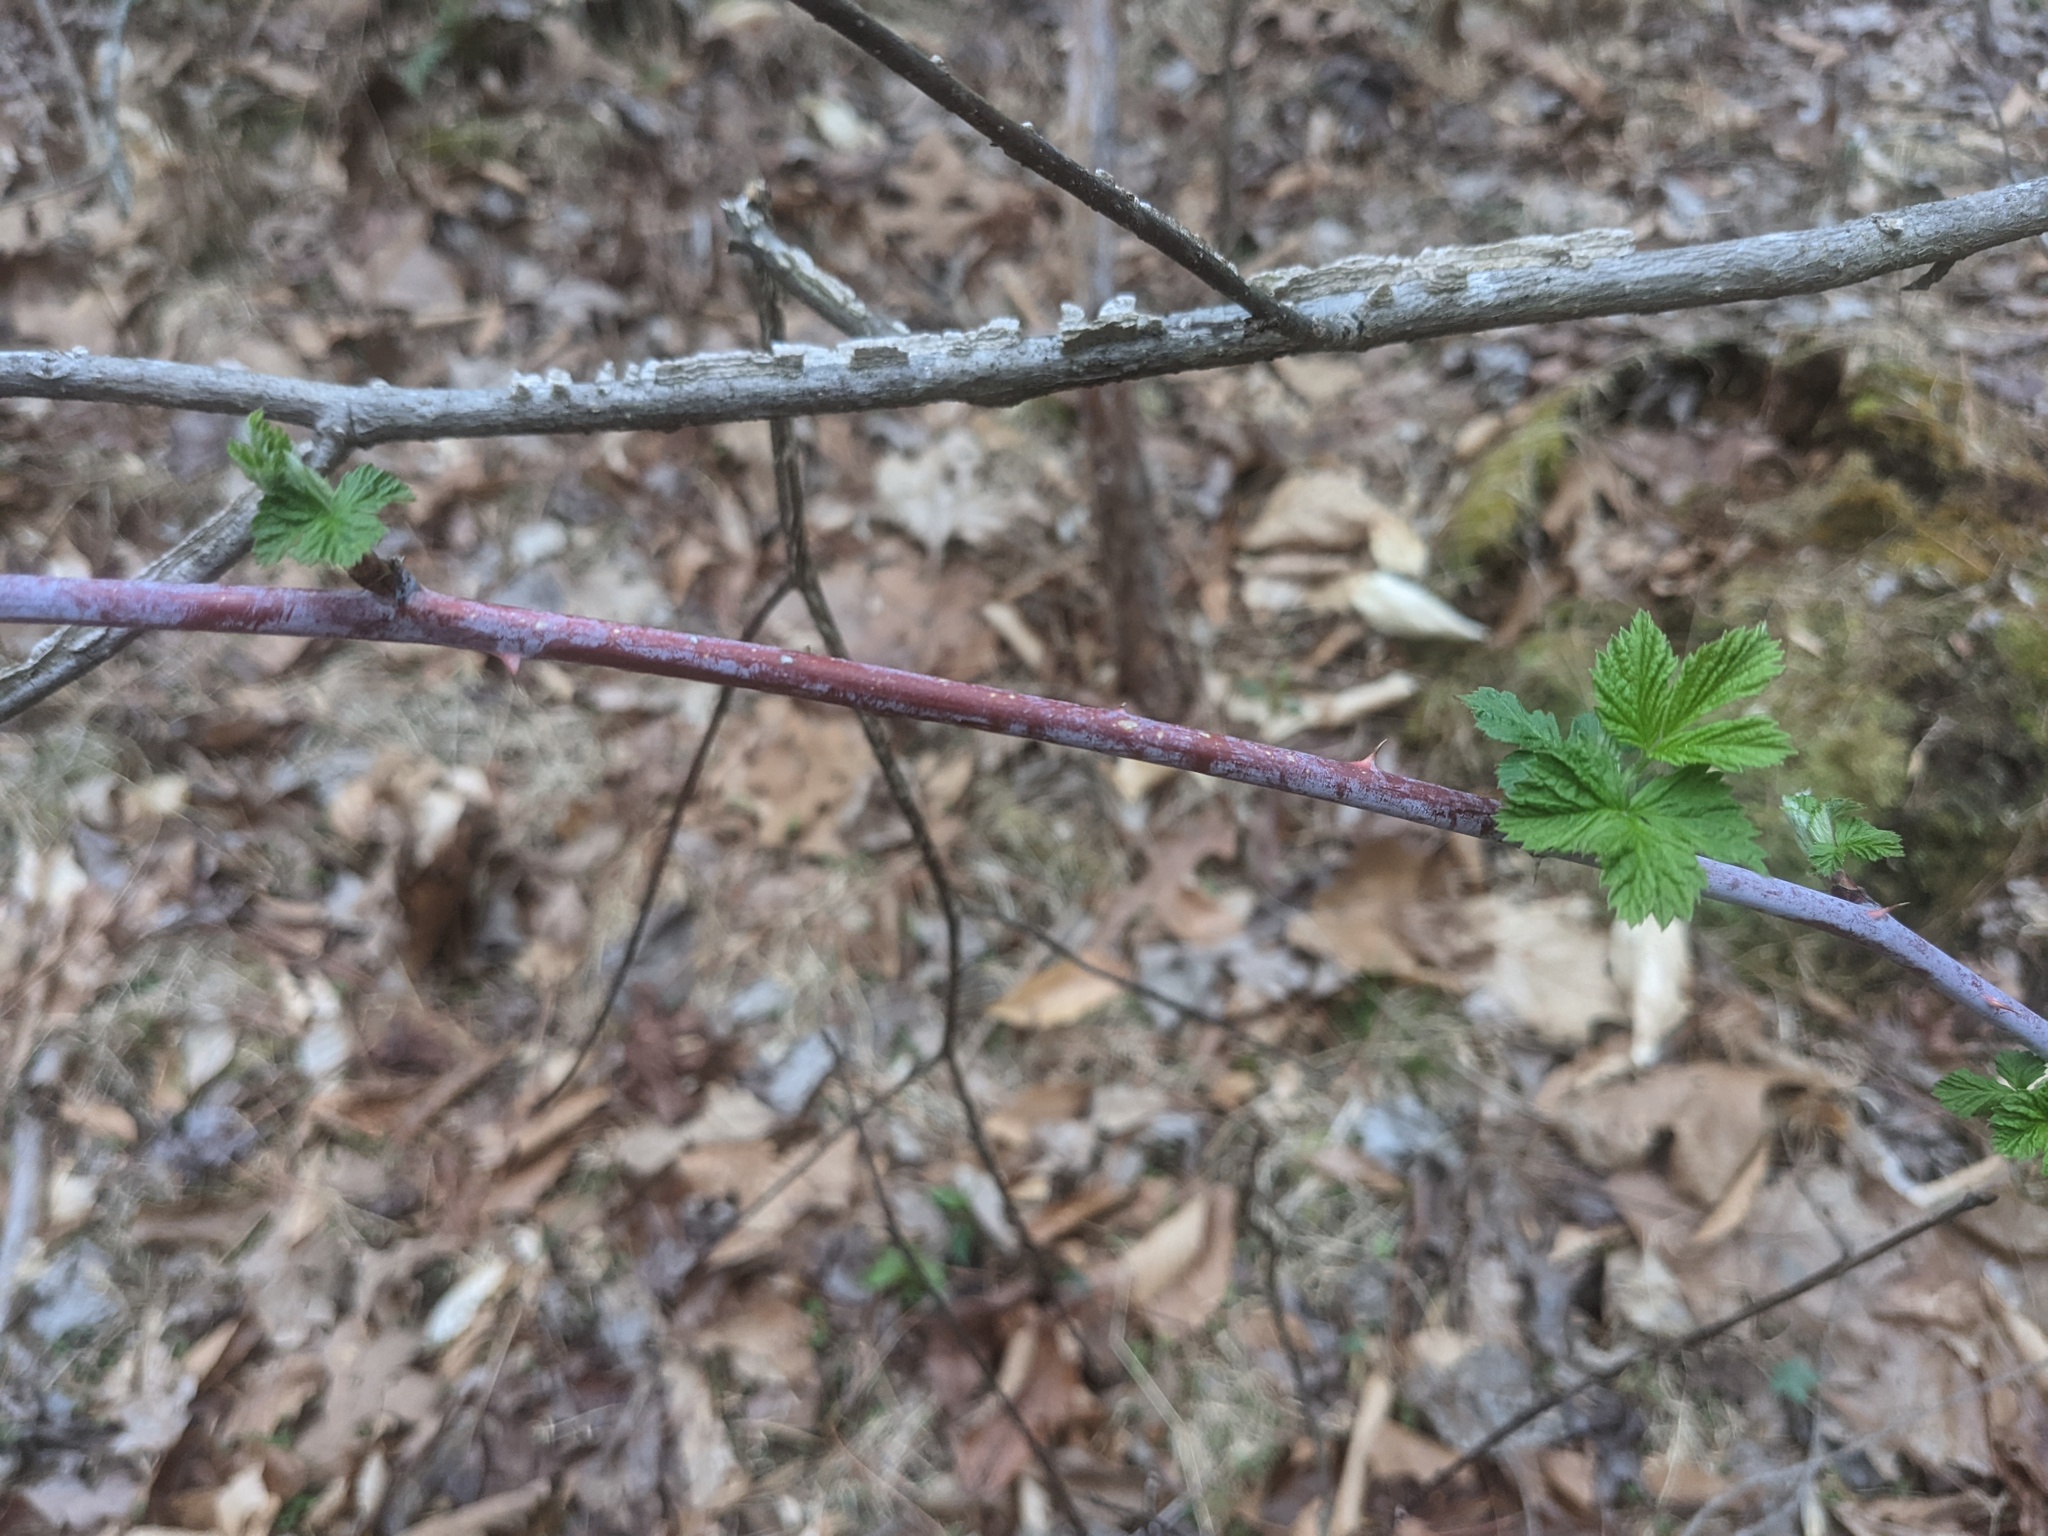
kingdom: Plantae
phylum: Tracheophyta
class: Magnoliopsida
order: Rosales
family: Rosaceae
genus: Rubus
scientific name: Rubus occidentalis
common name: Black raspberry
